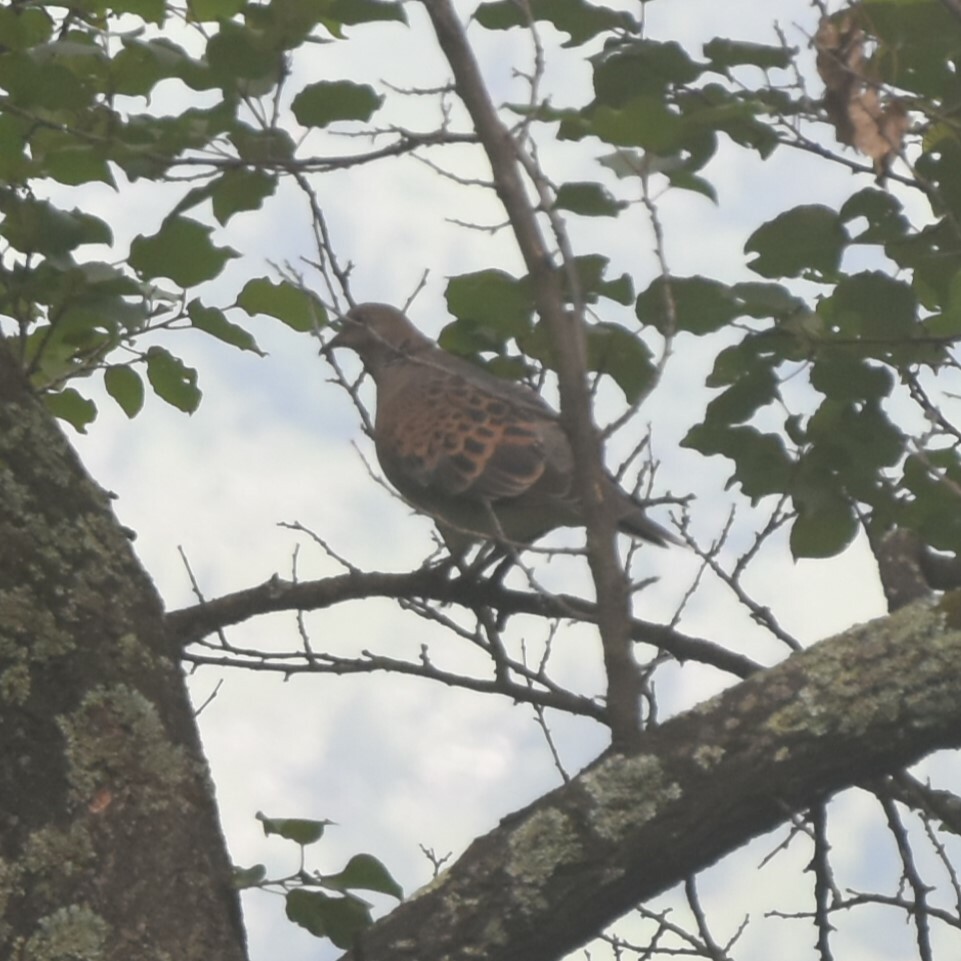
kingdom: Animalia
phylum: Chordata
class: Aves
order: Columbiformes
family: Columbidae
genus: Streptopelia
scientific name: Streptopelia orientalis
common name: Oriental turtle dove
